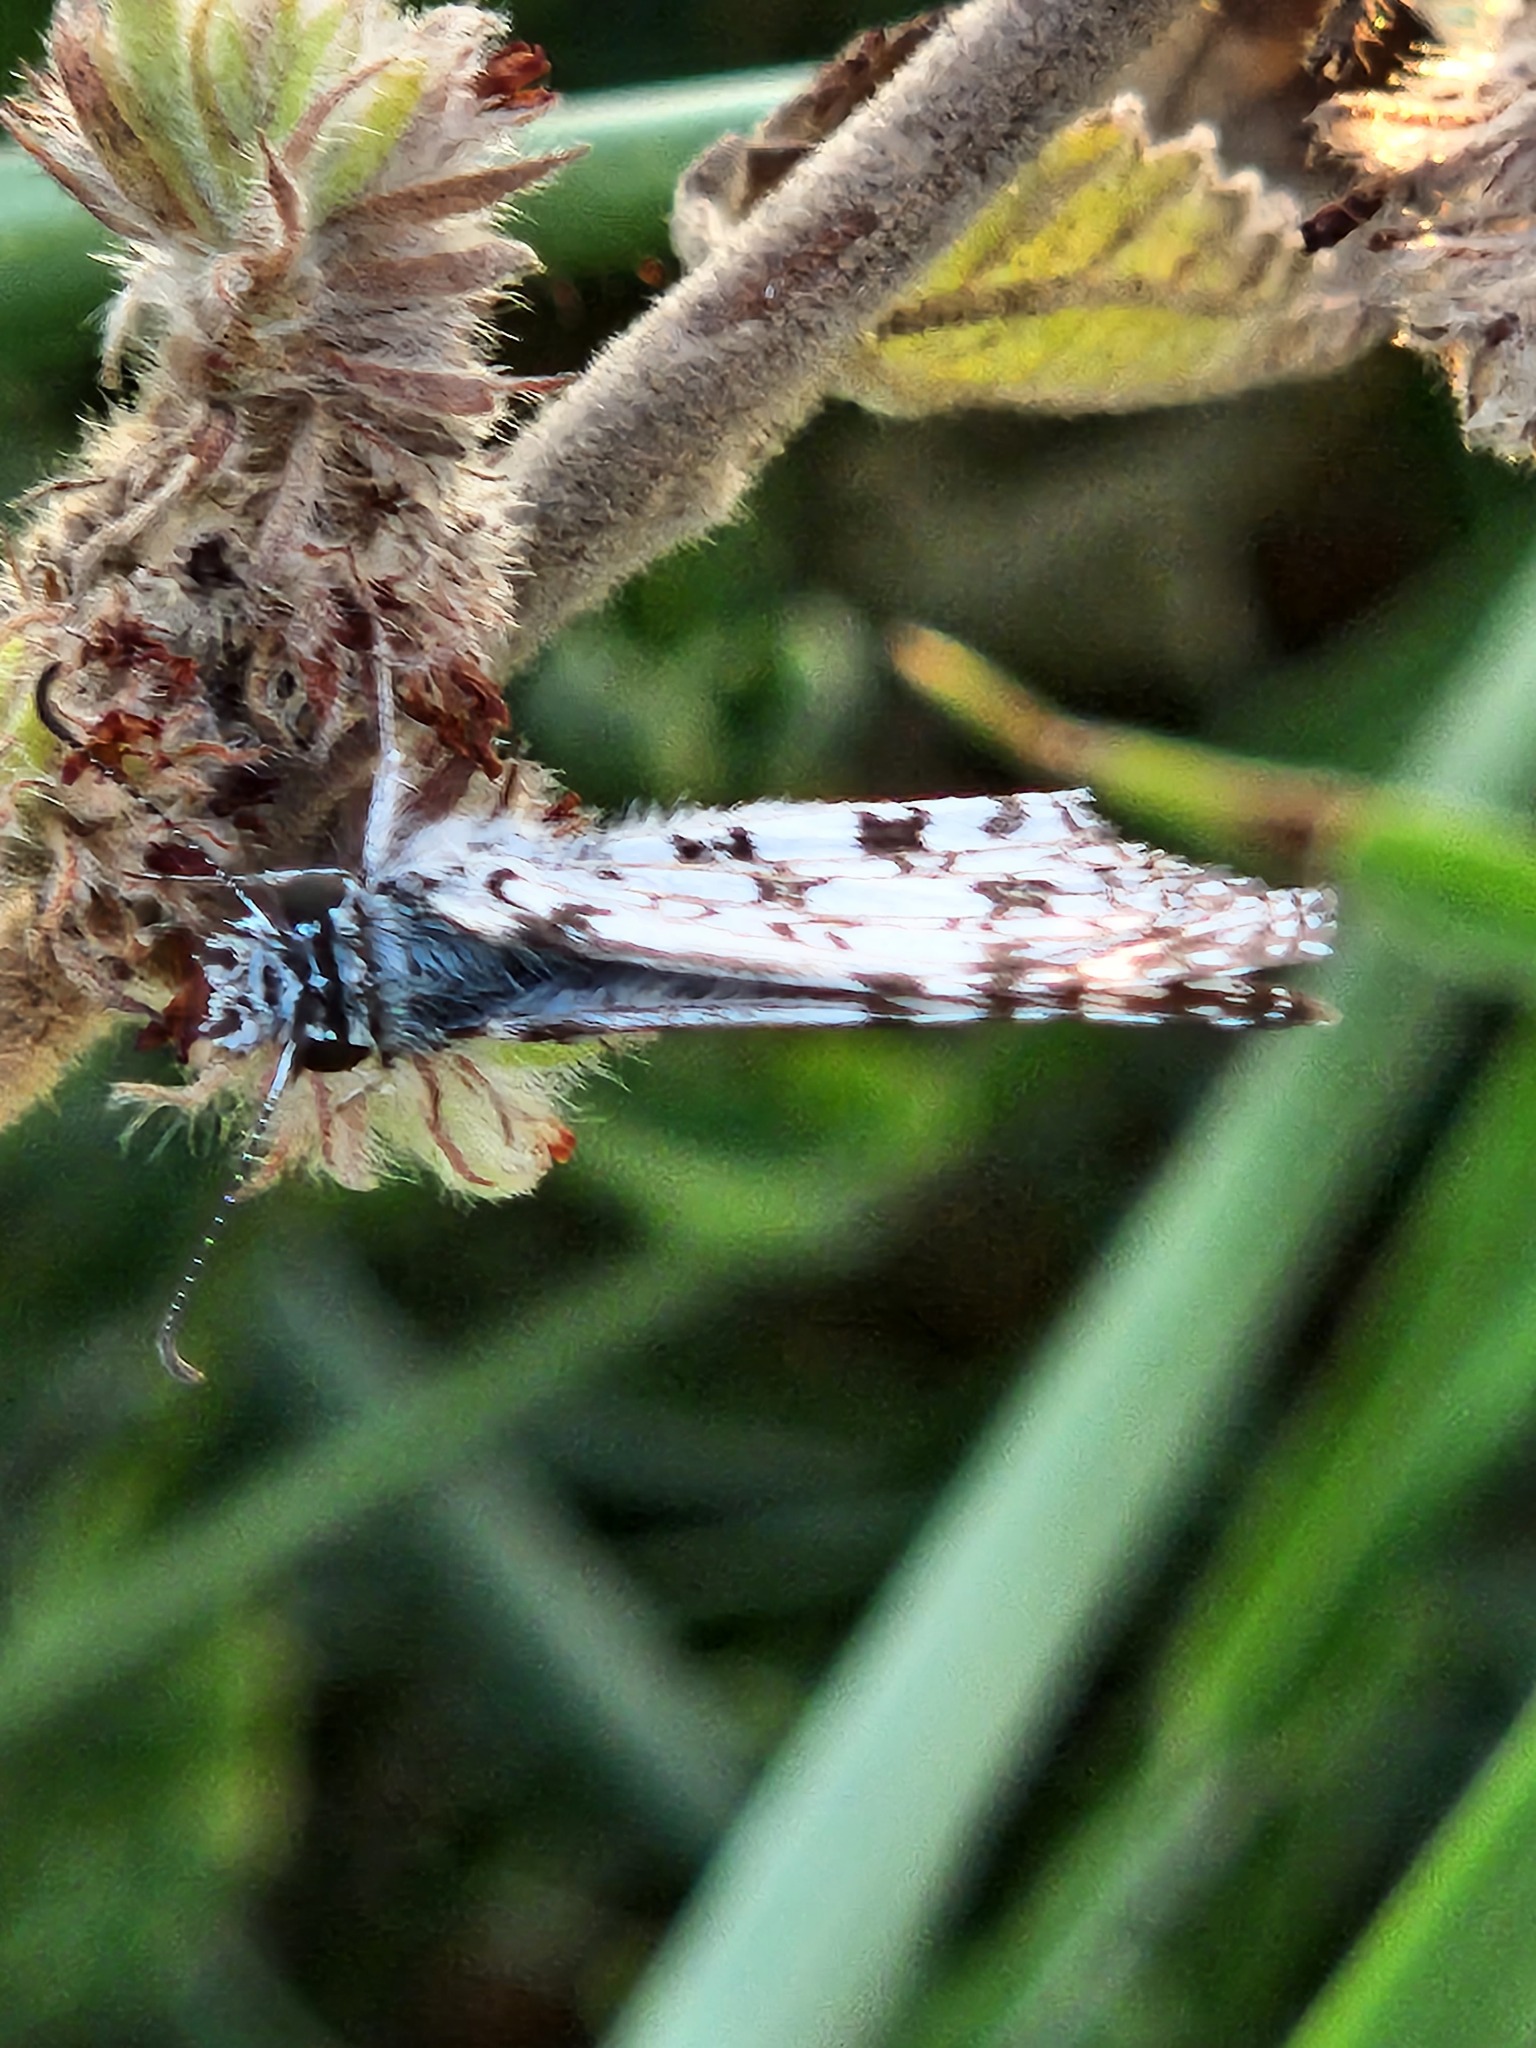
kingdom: Animalia
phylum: Arthropoda
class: Insecta
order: Lepidoptera
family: Hesperiidae
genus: Pyrgus
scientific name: Pyrgus oileus
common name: Tropical checkered-skipper
